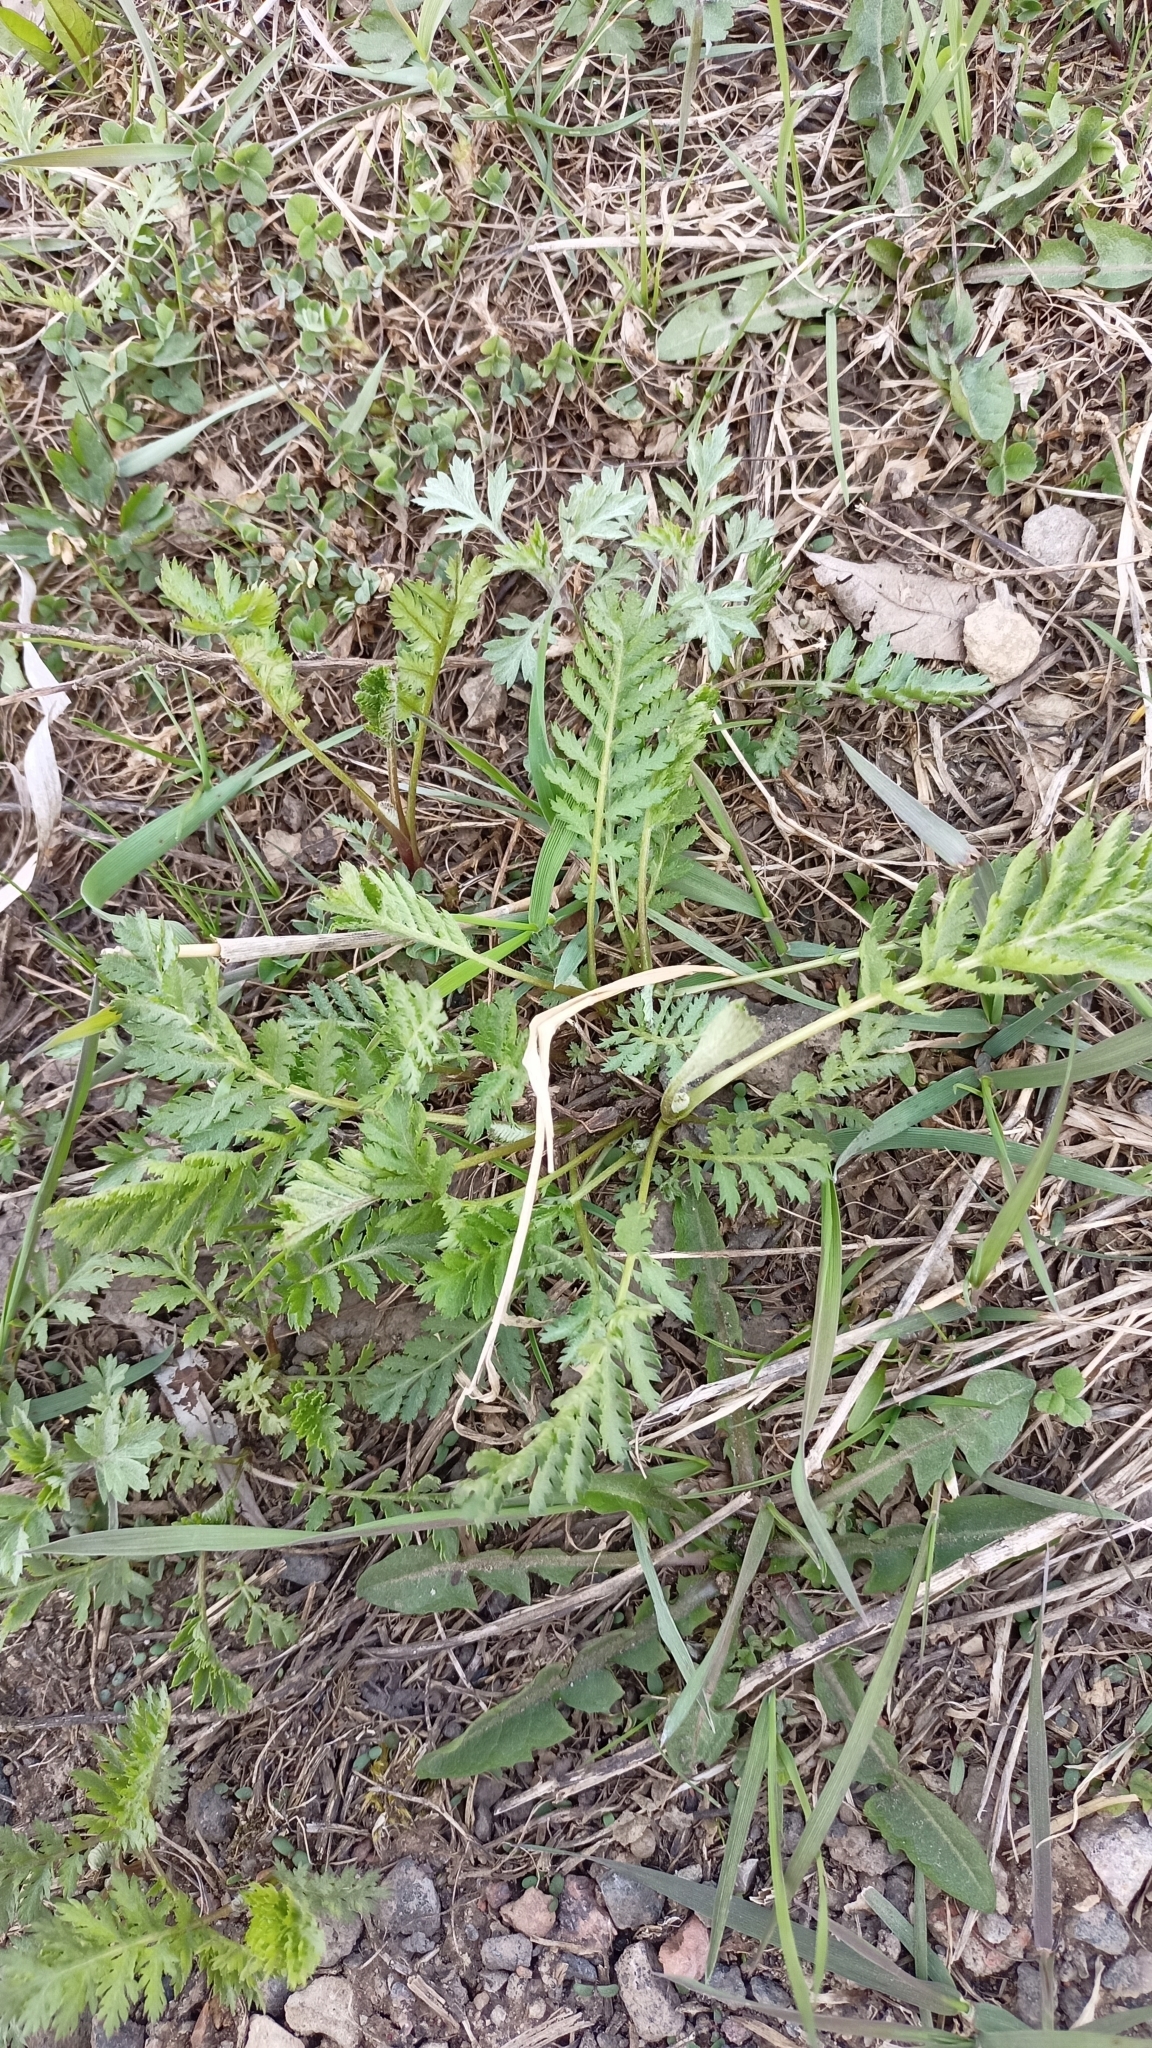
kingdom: Plantae
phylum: Tracheophyta
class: Magnoliopsida
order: Asterales
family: Asteraceae
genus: Tanacetum
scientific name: Tanacetum vulgare
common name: Common tansy
